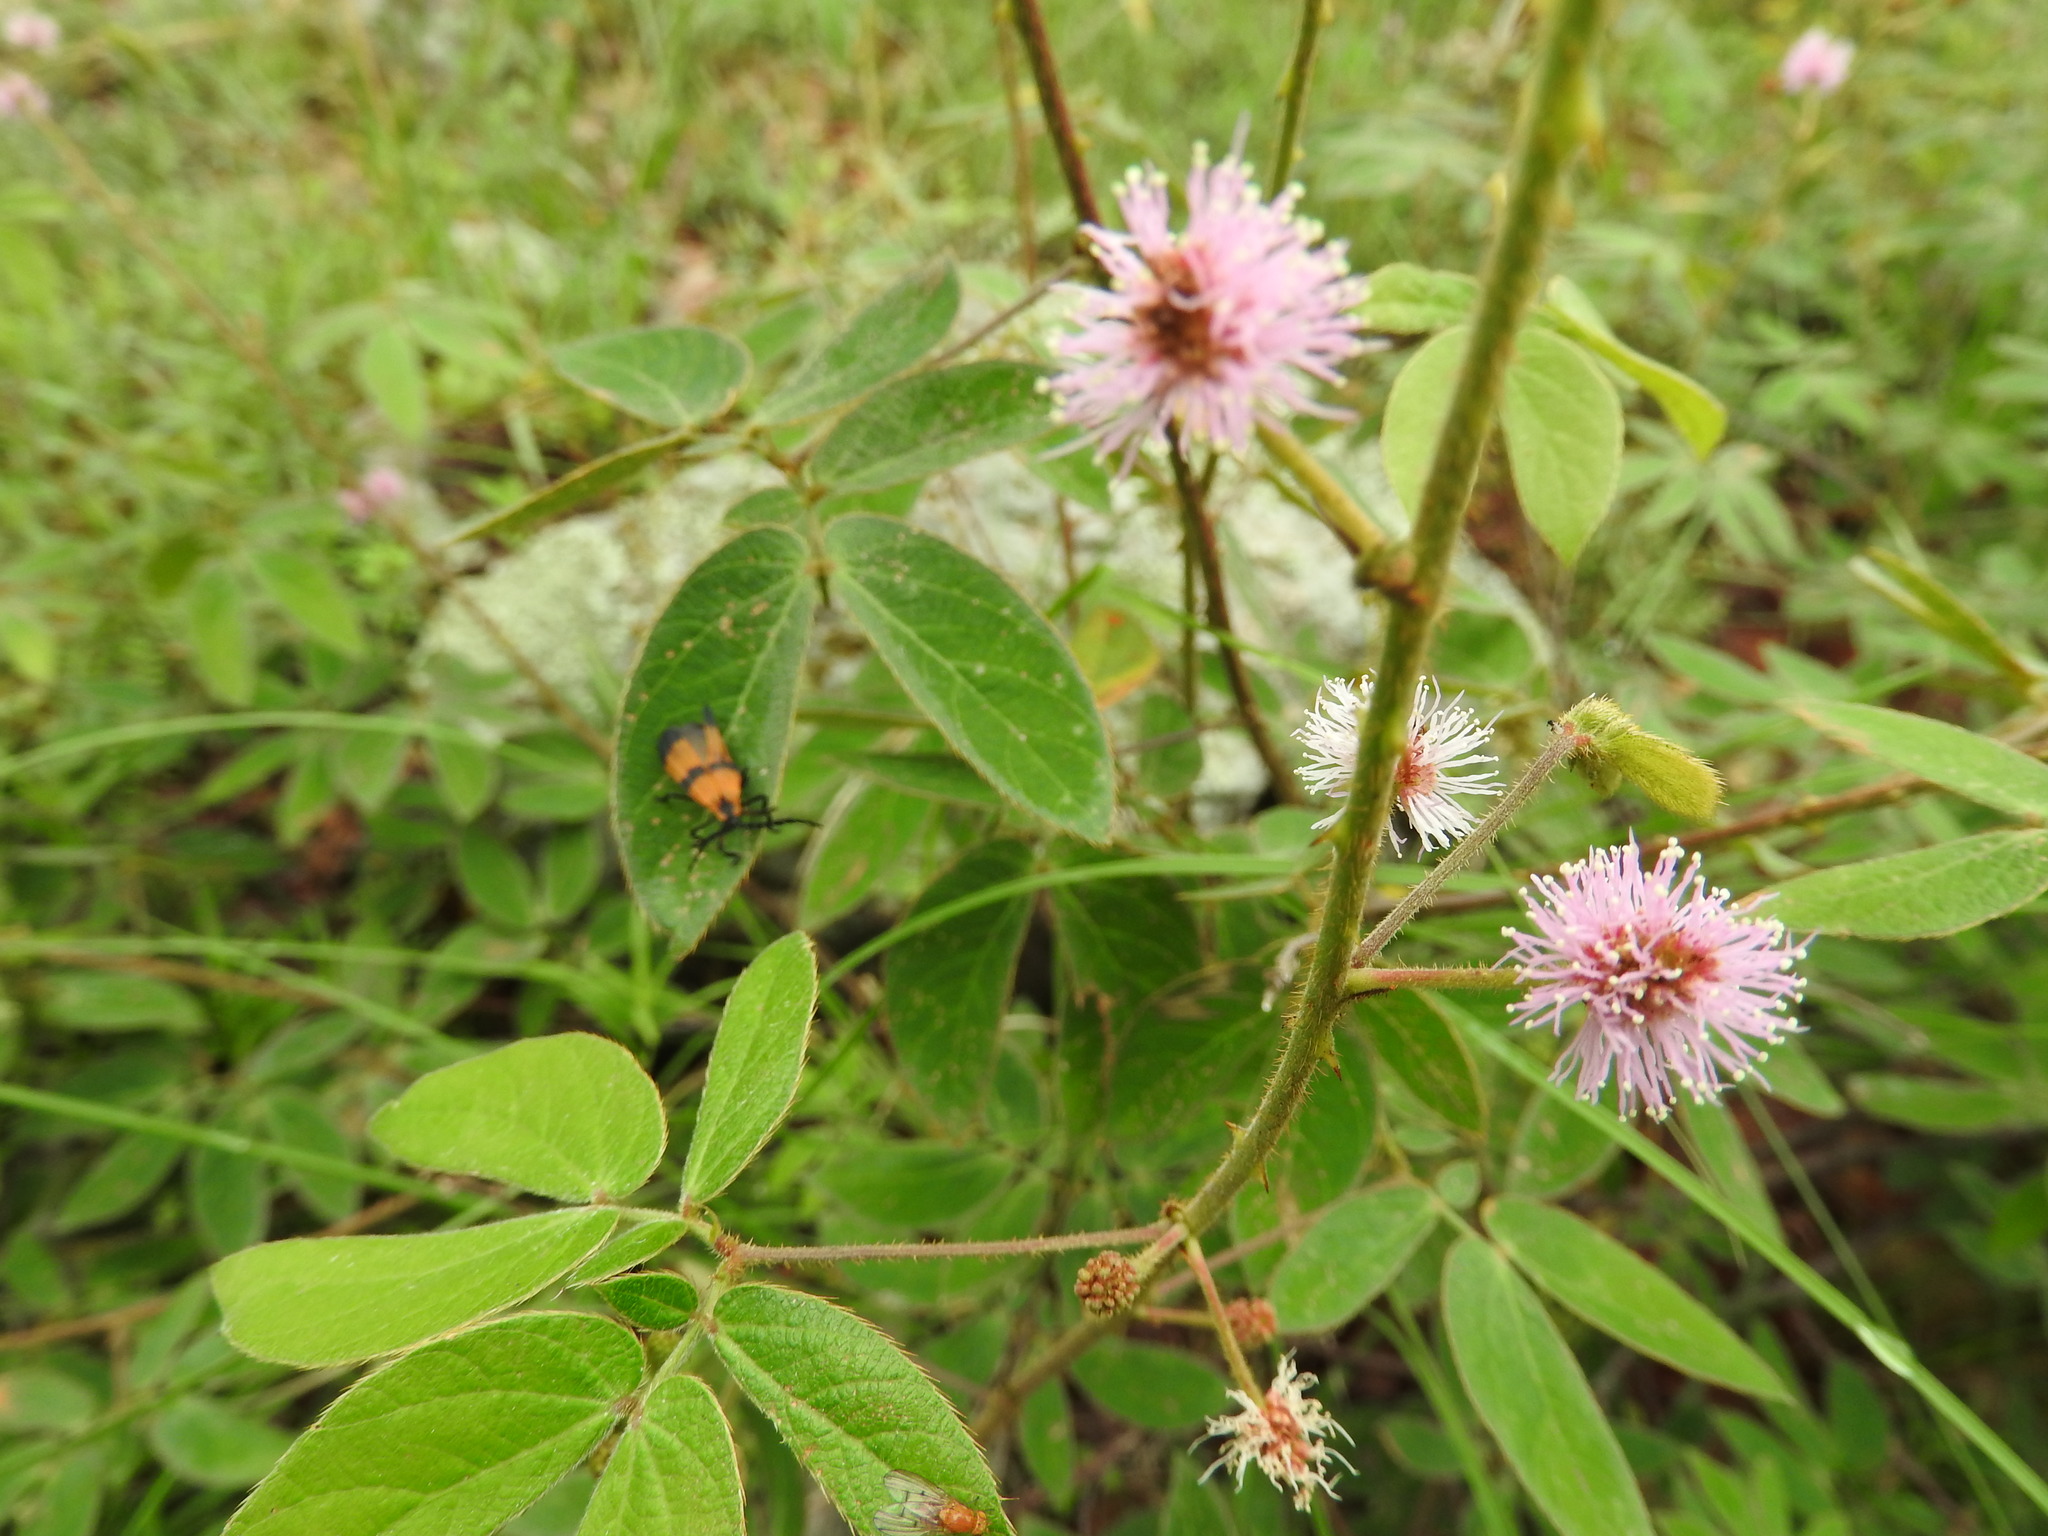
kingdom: Plantae
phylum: Tracheophyta
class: Magnoliopsida
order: Fabales
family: Fabaceae
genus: Mimosa
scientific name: Mimosa albida
